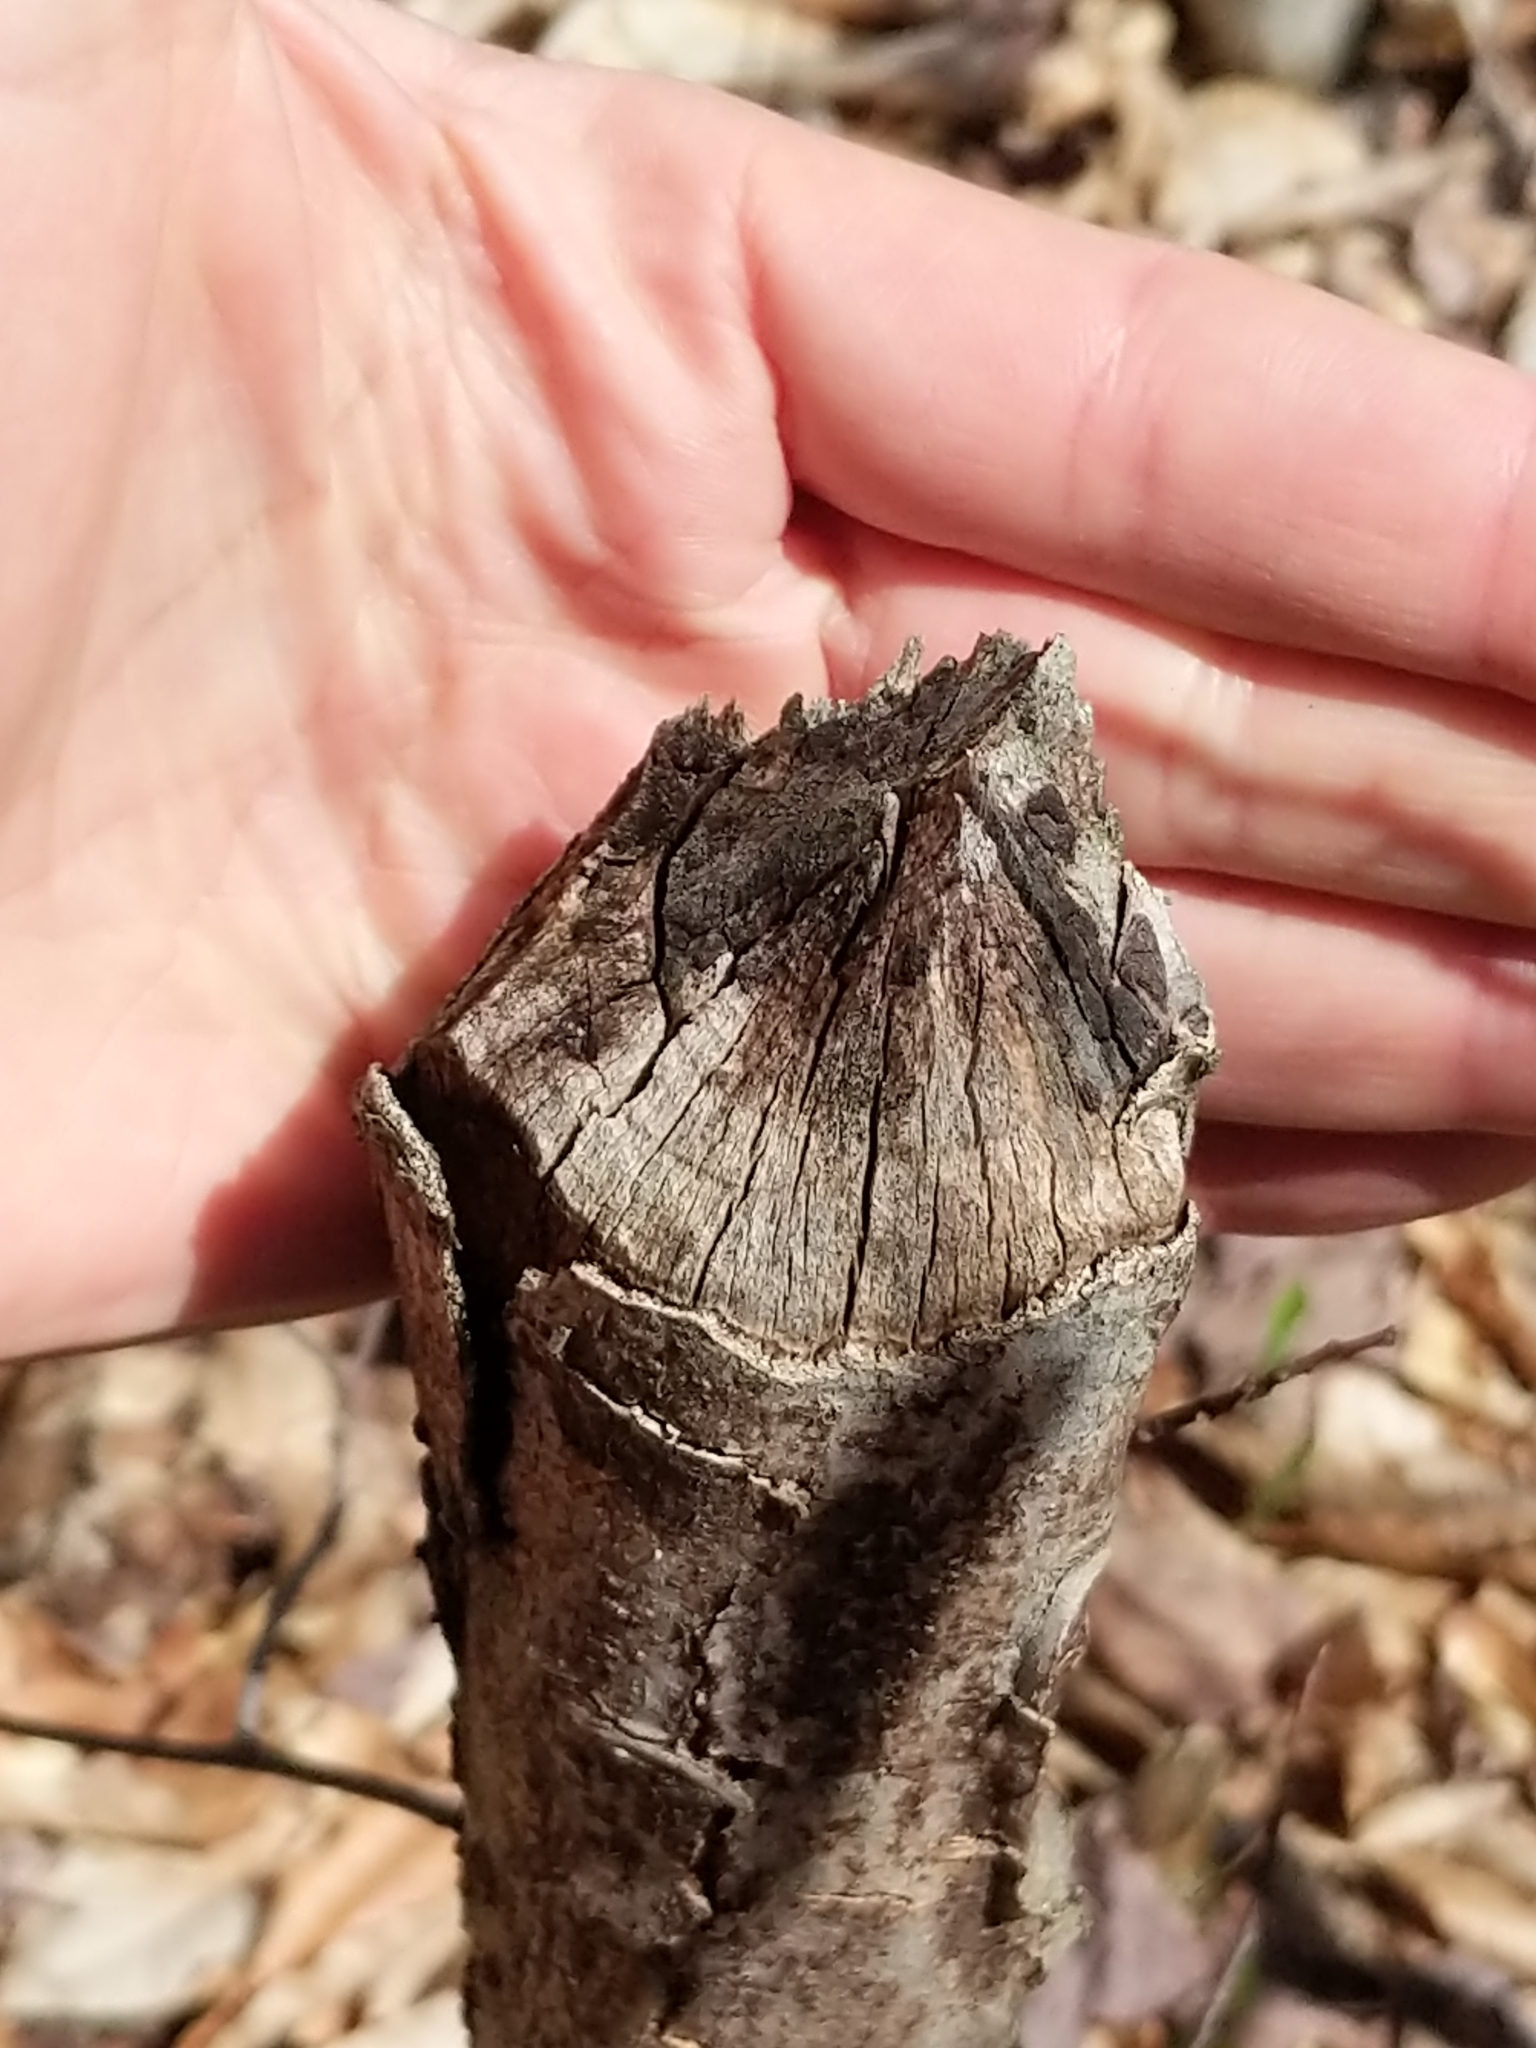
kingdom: Animalia
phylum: Chordata
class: Mammalia
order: Rodentia
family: Castoridae
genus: Castor
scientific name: Castor canadensis
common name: American beaver
